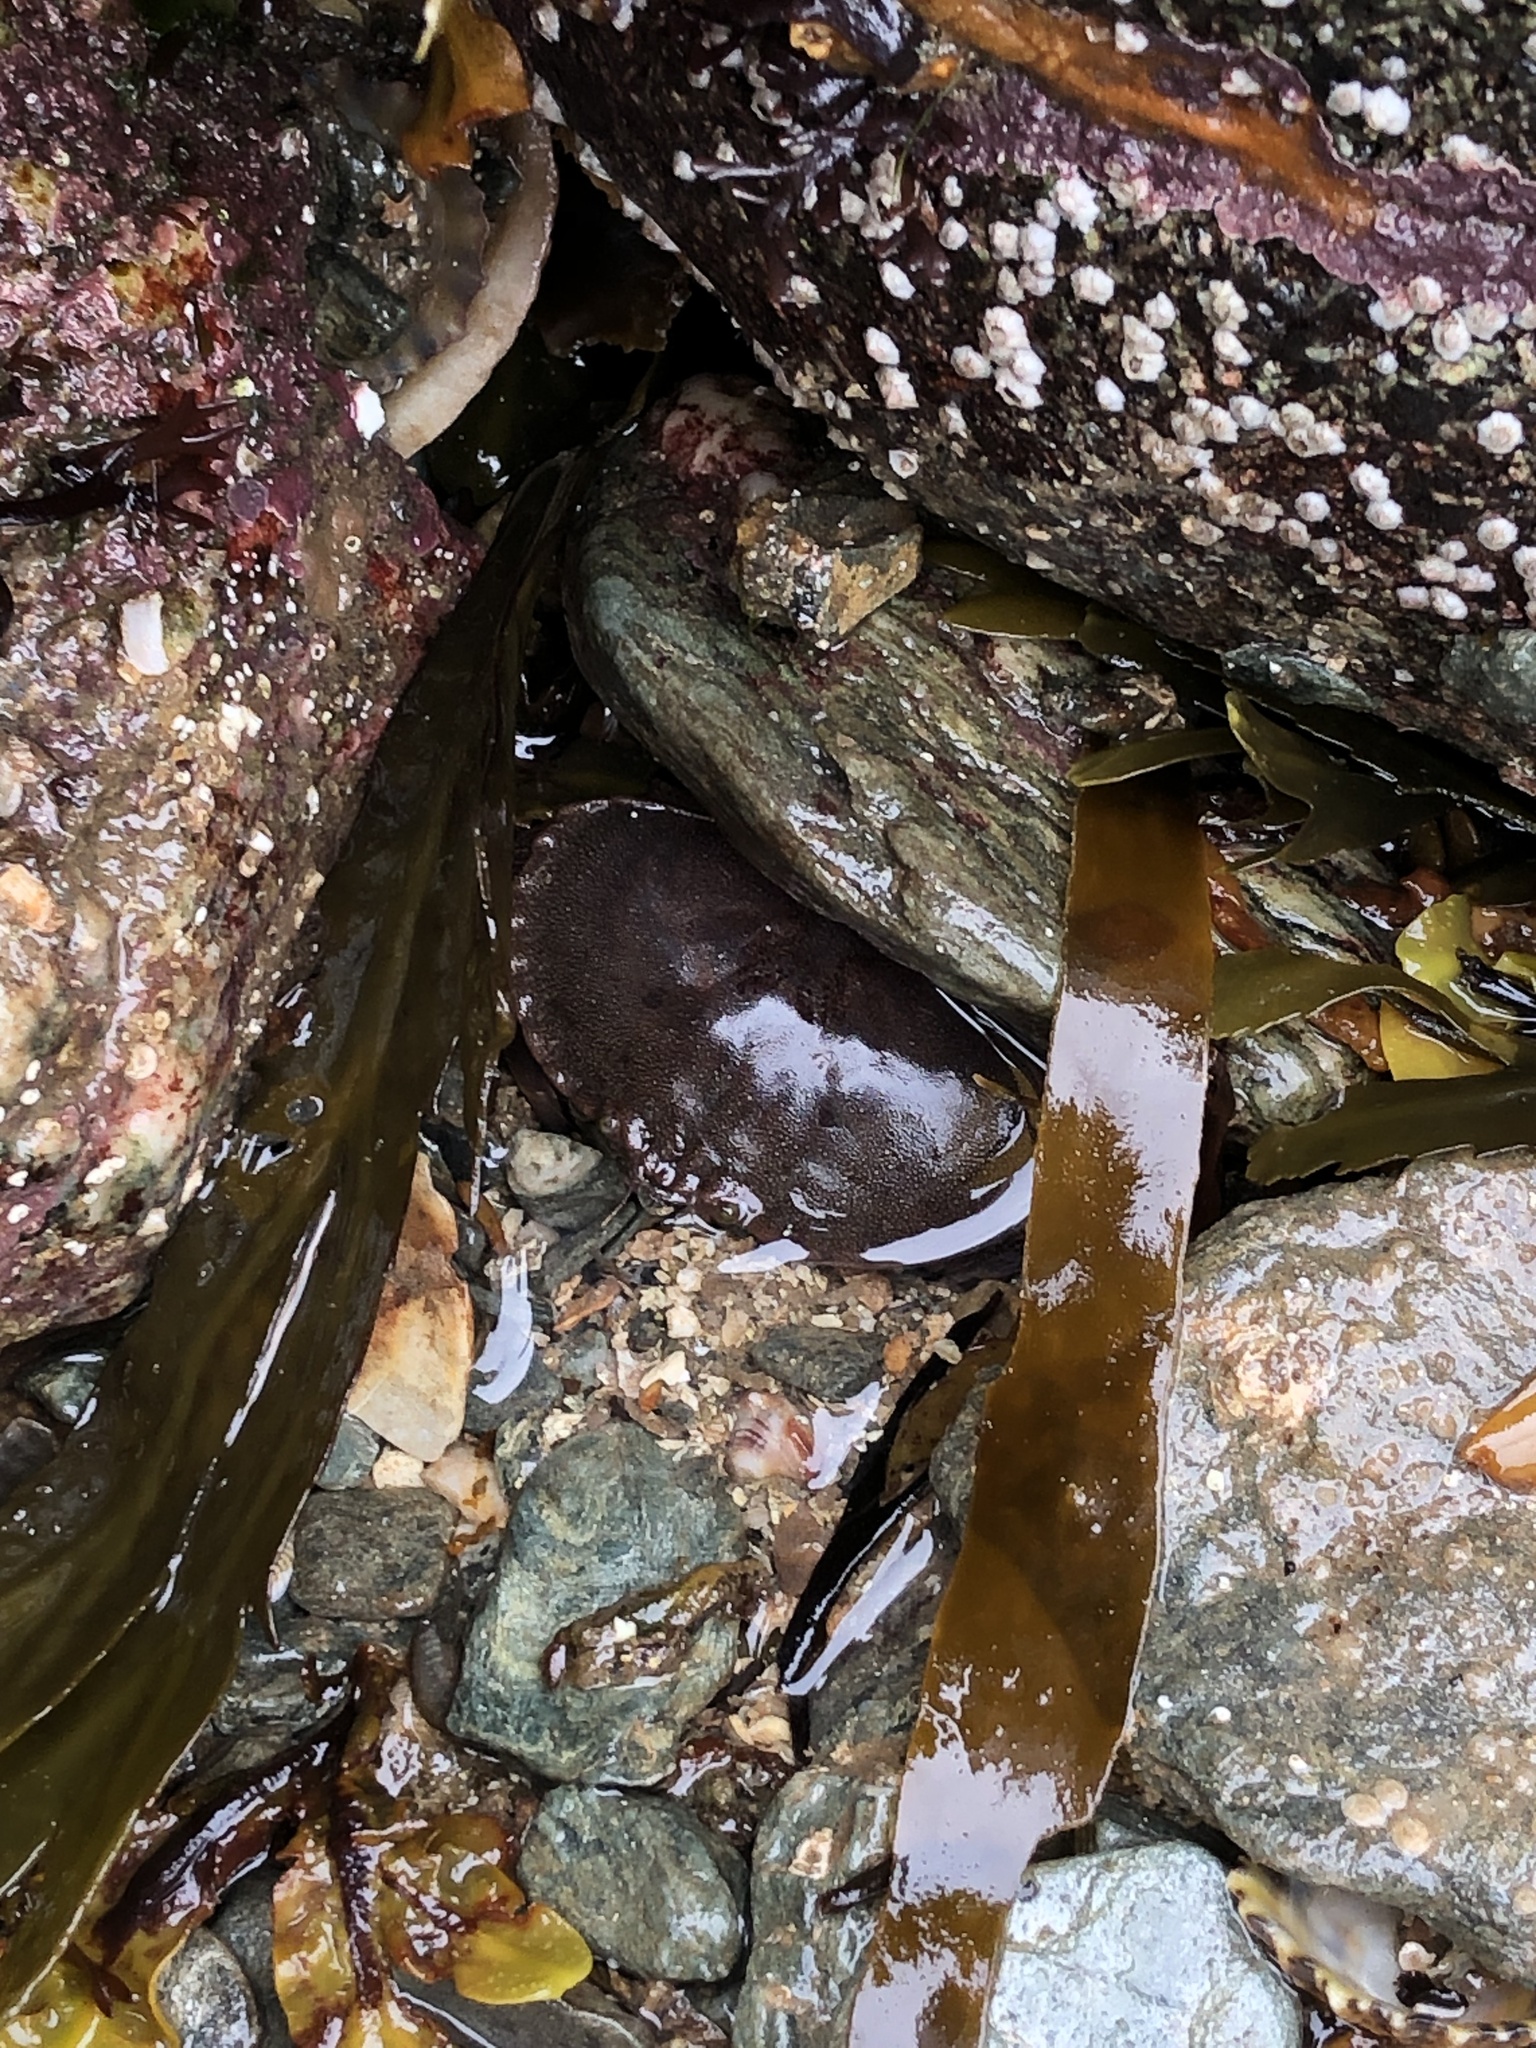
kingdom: Animalia
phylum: Arthropoda
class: Malacostraca
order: Decapoda
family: Cancridae
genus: Cancer
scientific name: Cancer pagurus
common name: Edible crab
